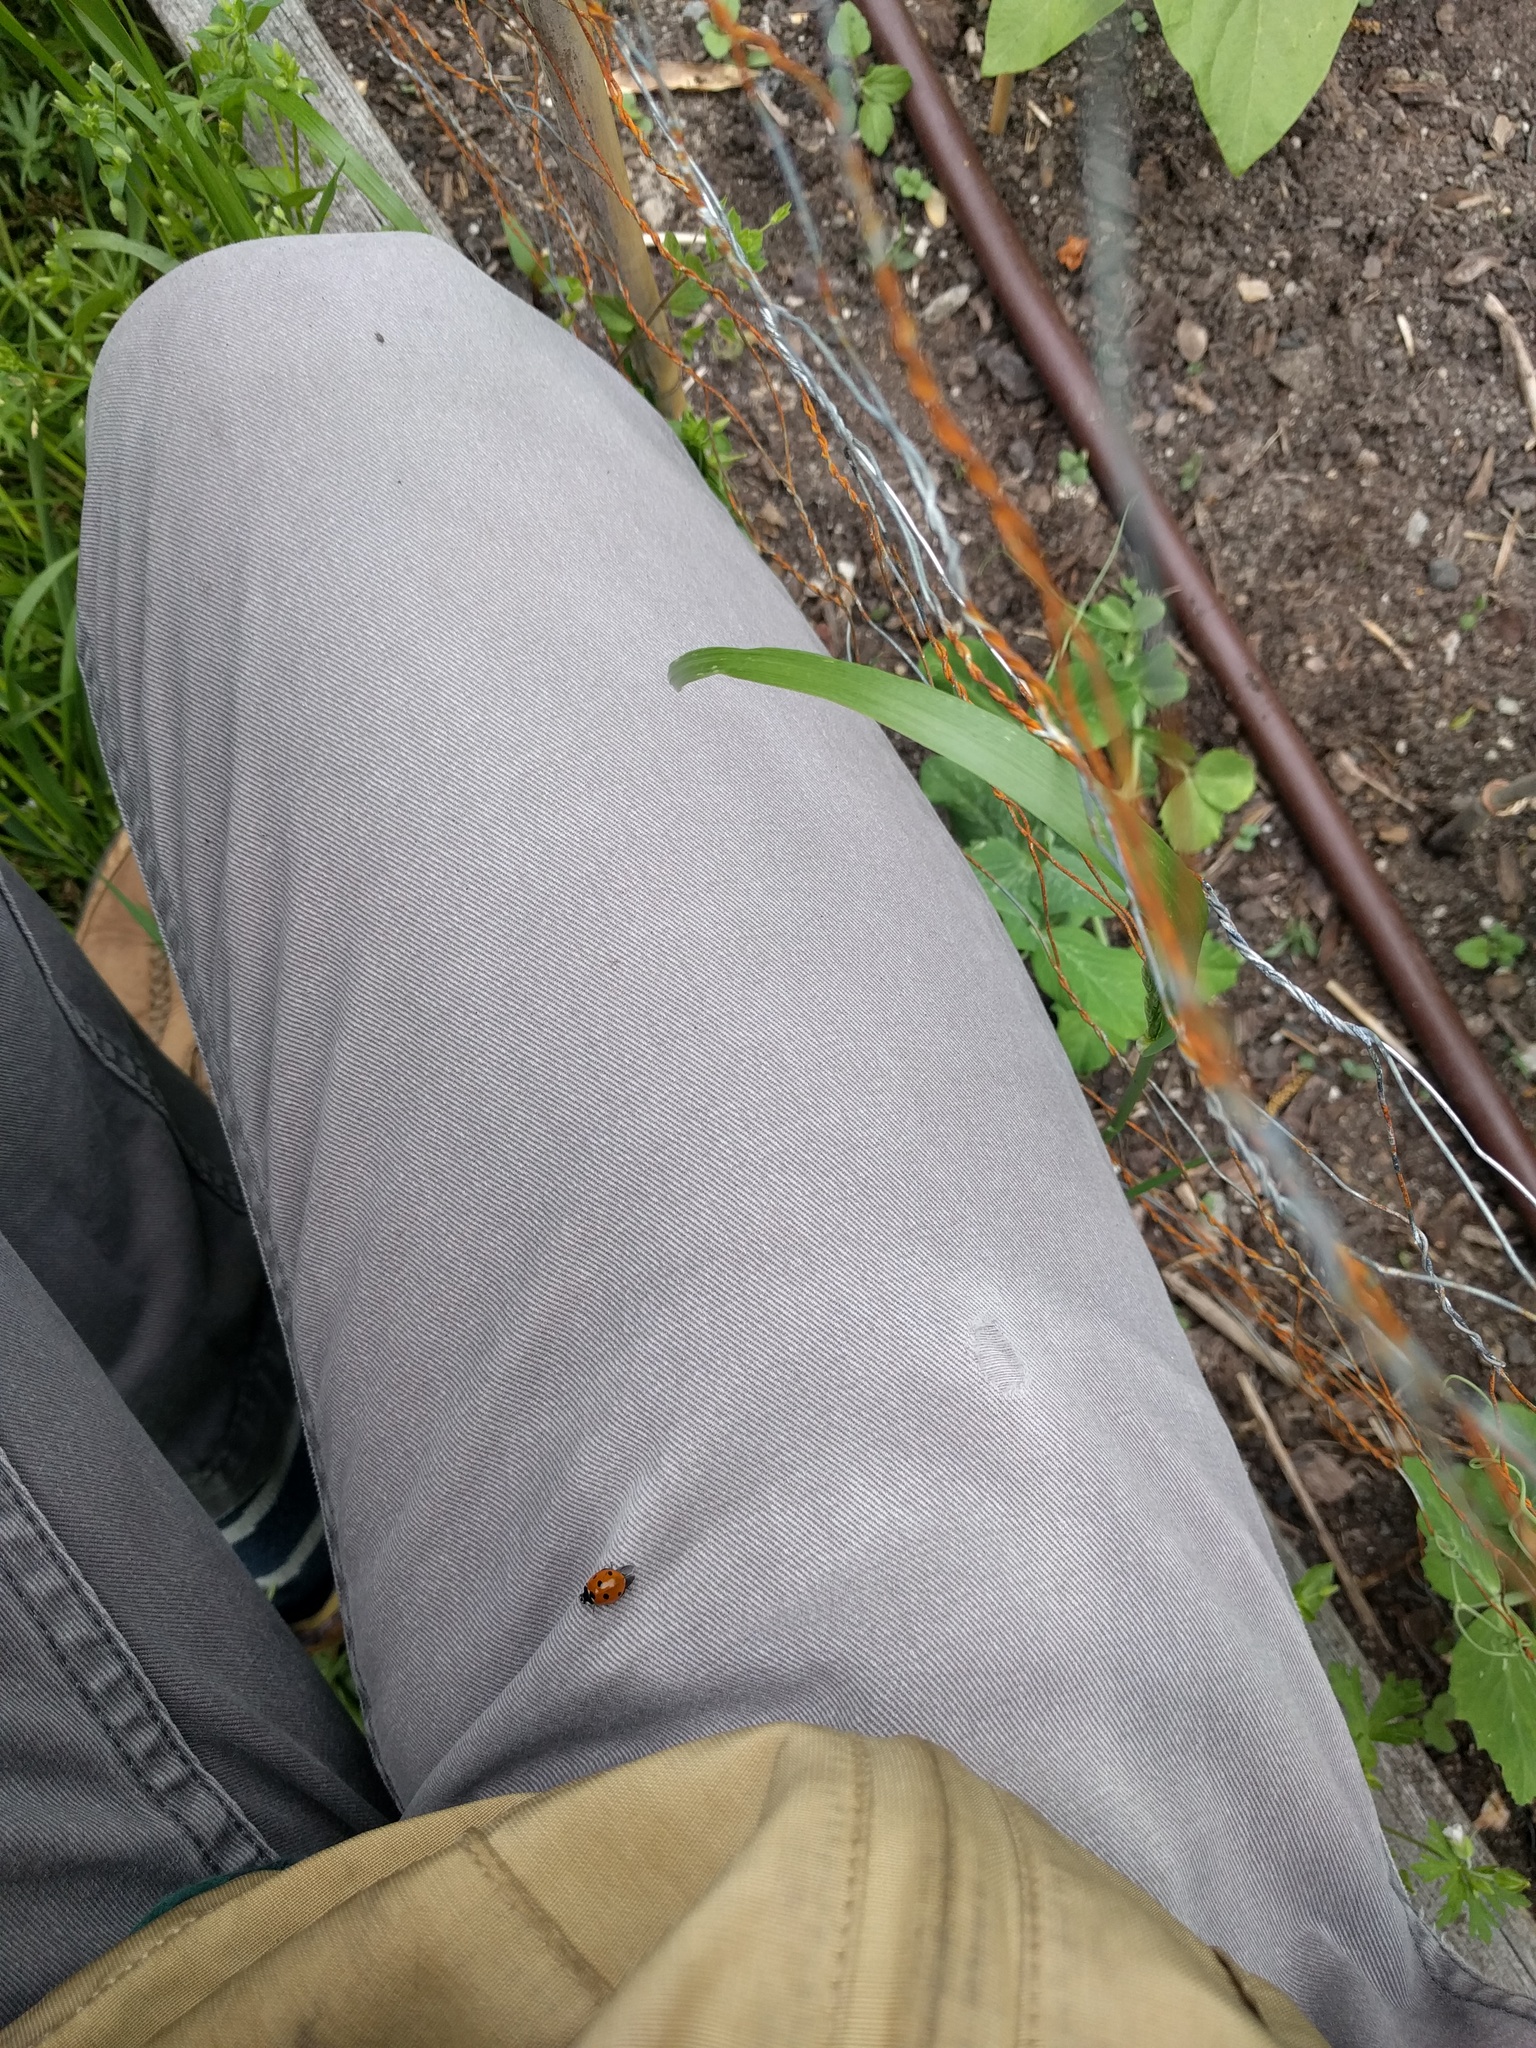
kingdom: Animalia
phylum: Arthropoda
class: Insecta
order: Coleoptera
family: Coccinellidae
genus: Coccinella
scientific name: Coccinella septempunctata
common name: Sevenspotted lady beetle
